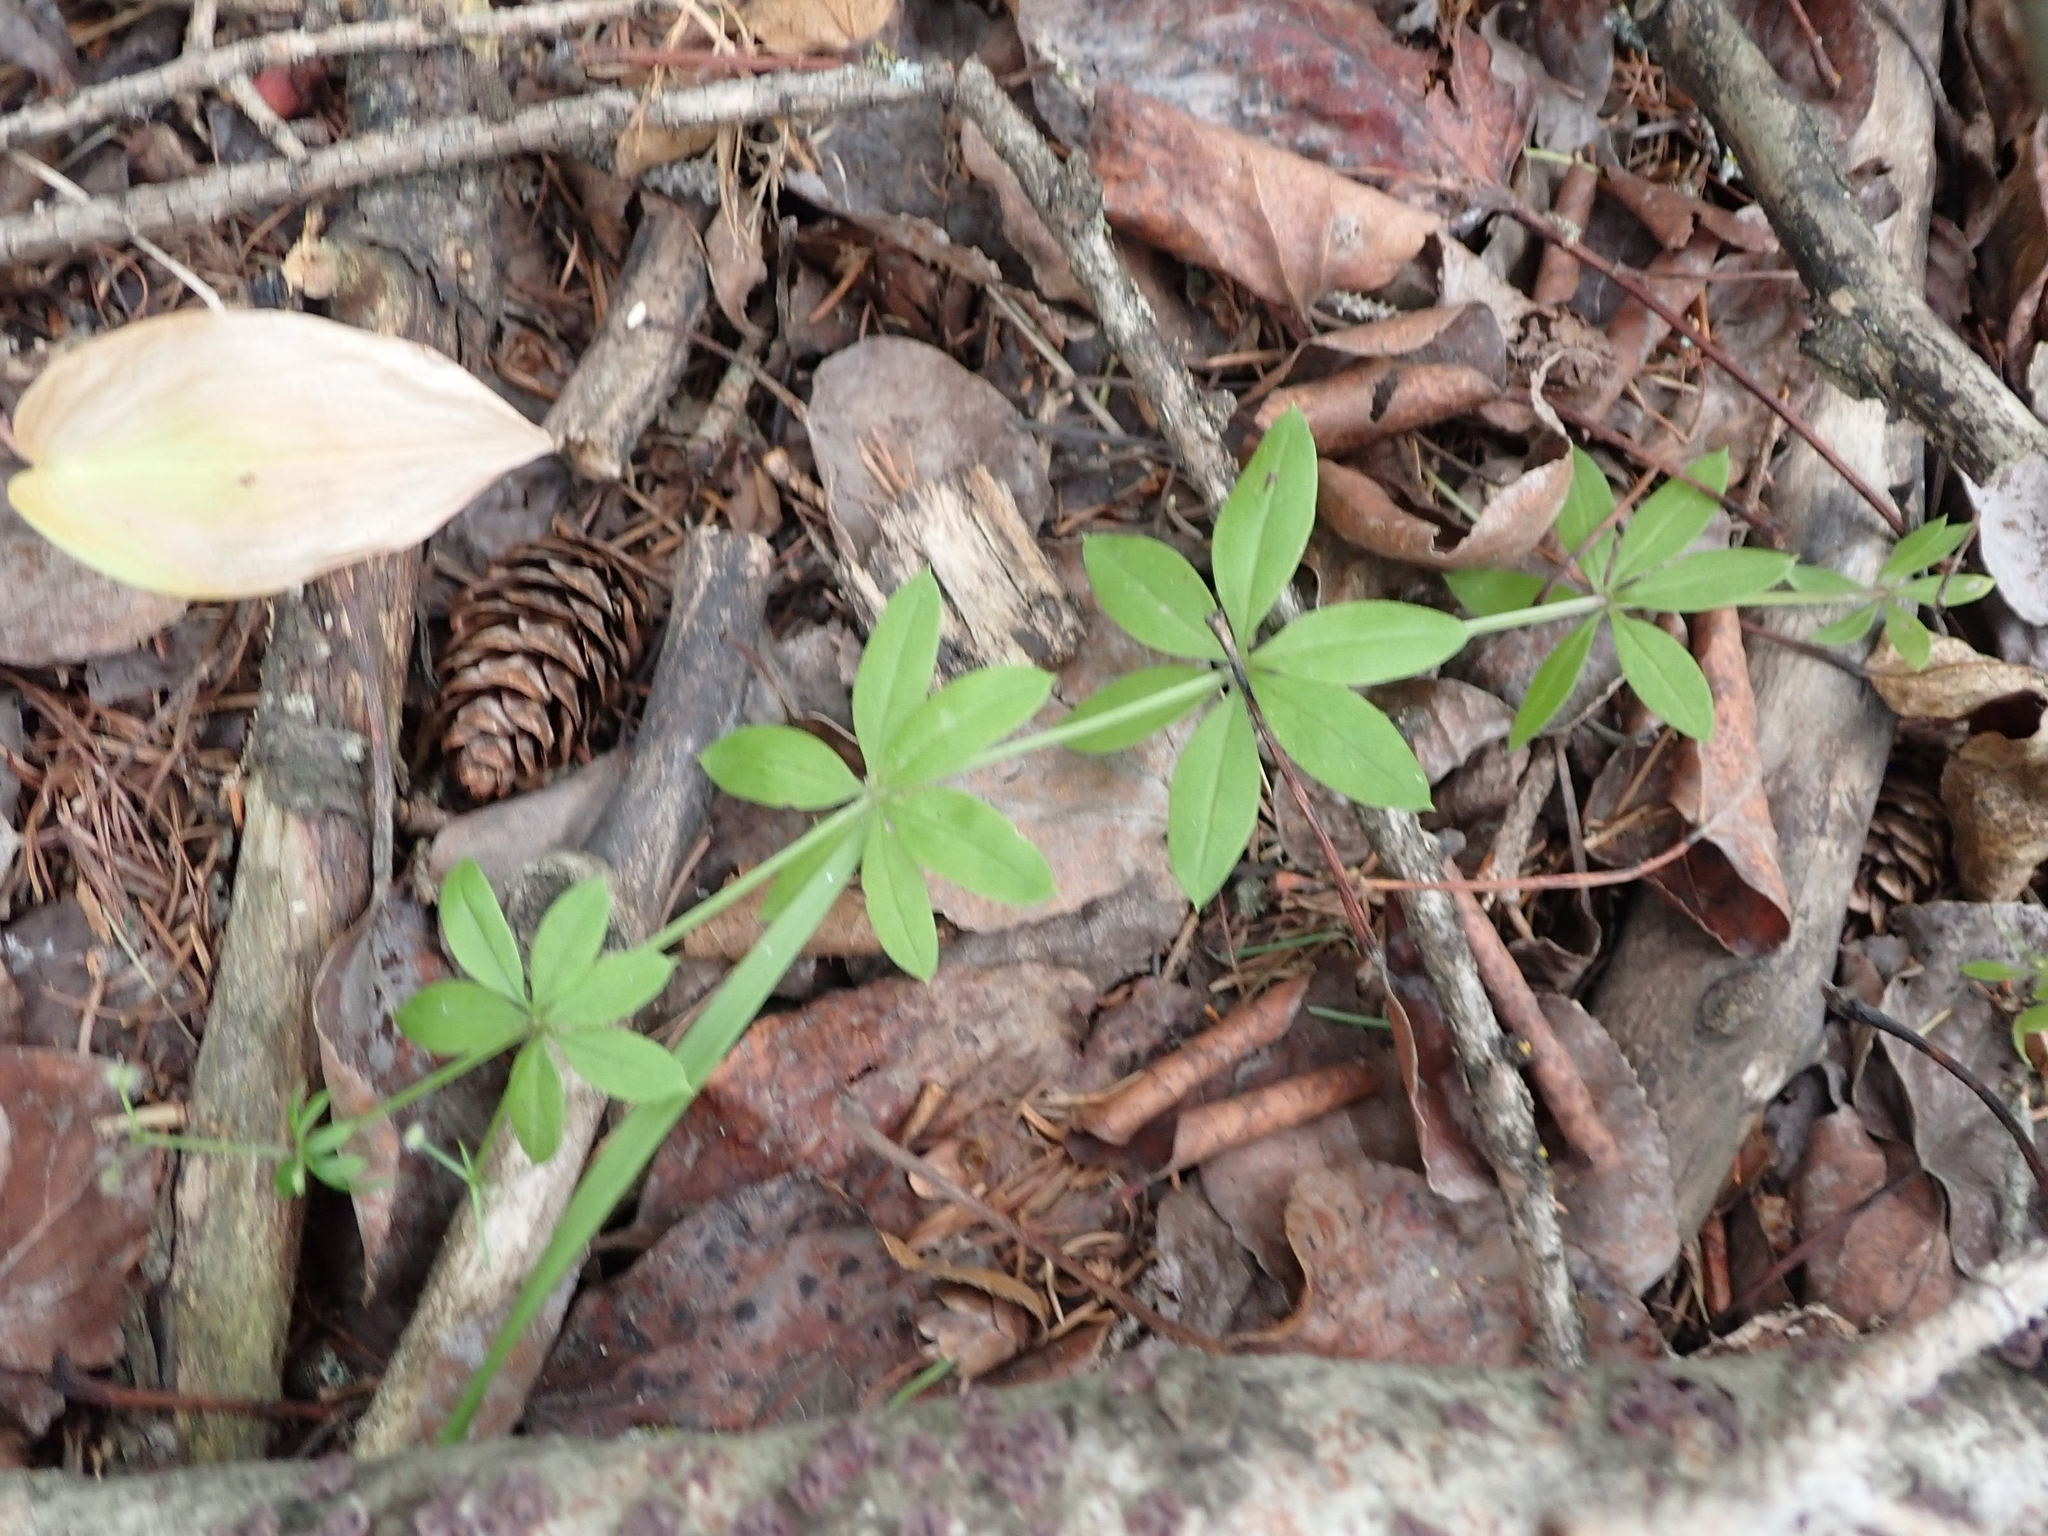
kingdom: Plantae
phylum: Tracheophyta
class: Magnoliopsida
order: Gentianales
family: Rubiaceae
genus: Galium
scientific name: Galium triflorum
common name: Fragrant bedstraw
